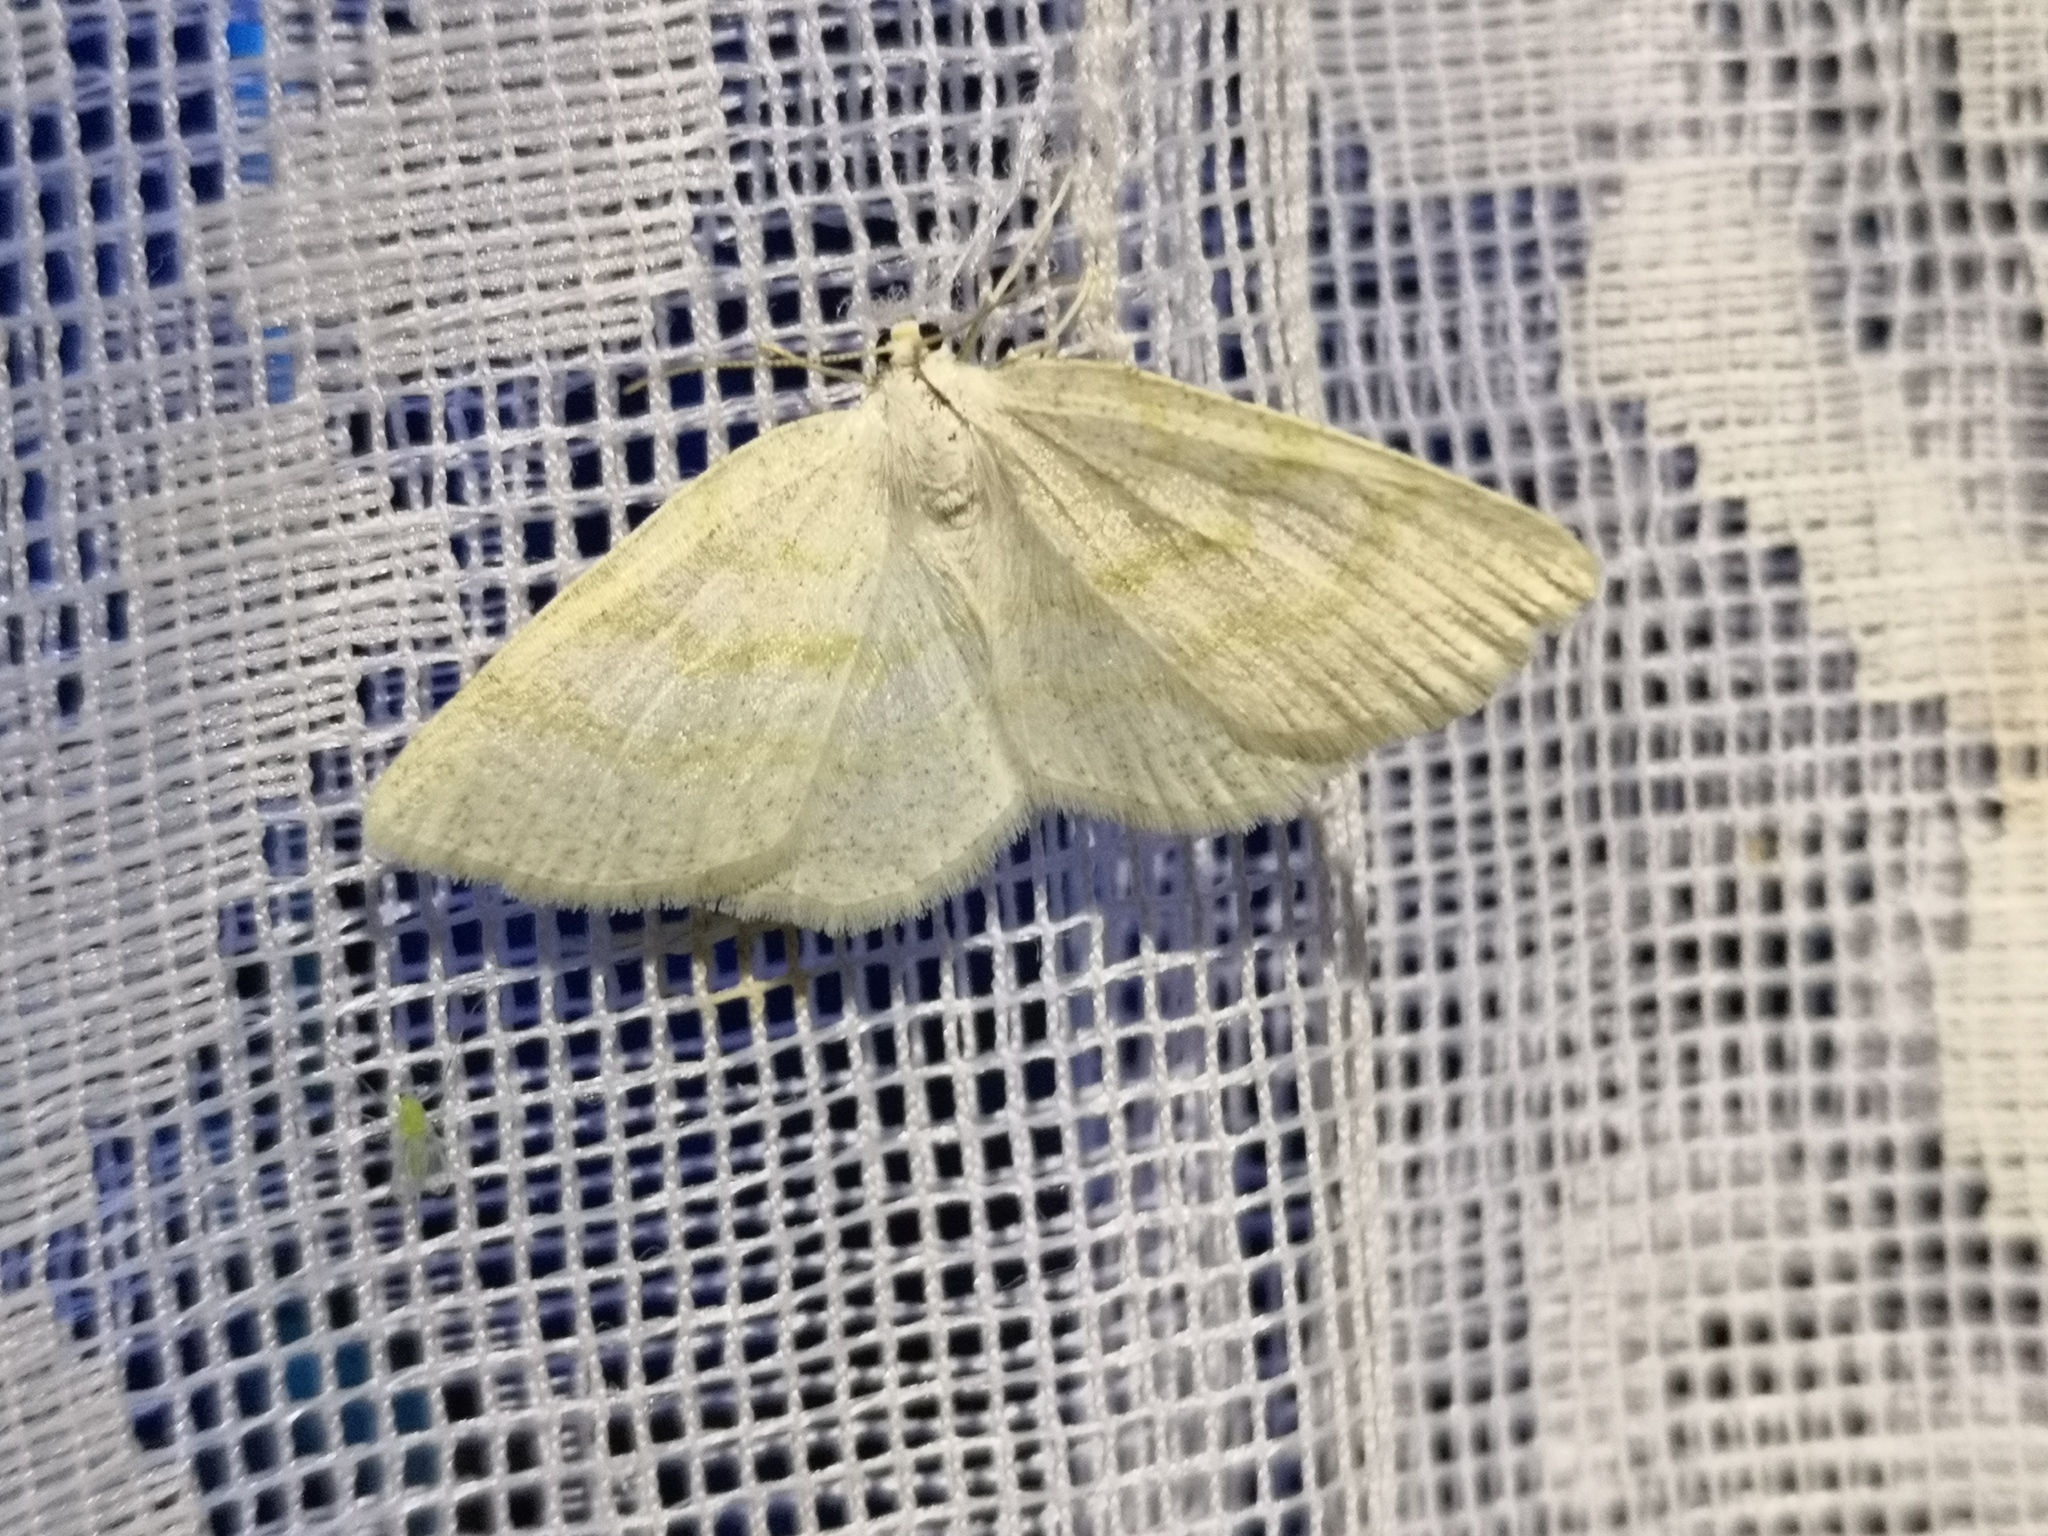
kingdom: Animalia
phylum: Arthropoda
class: Insecta
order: Lepidoptera
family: Geometridae
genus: Cabera
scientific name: Cabera exanthemata
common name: Common wave
